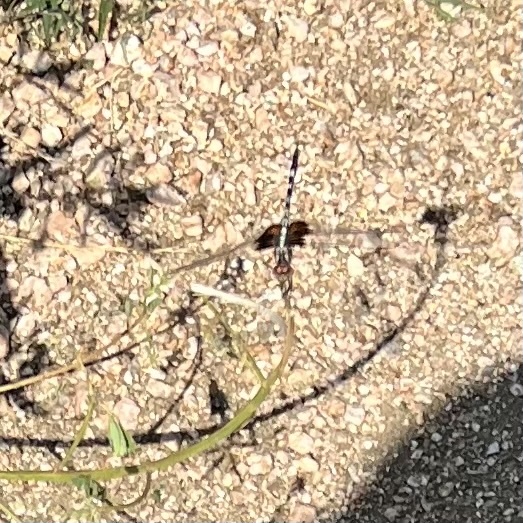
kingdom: Animalia
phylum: Arthropoda
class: Insecta
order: Odonata
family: Libellulidae
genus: Dythemis
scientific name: Dythemis fugax
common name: Checkered setwing
